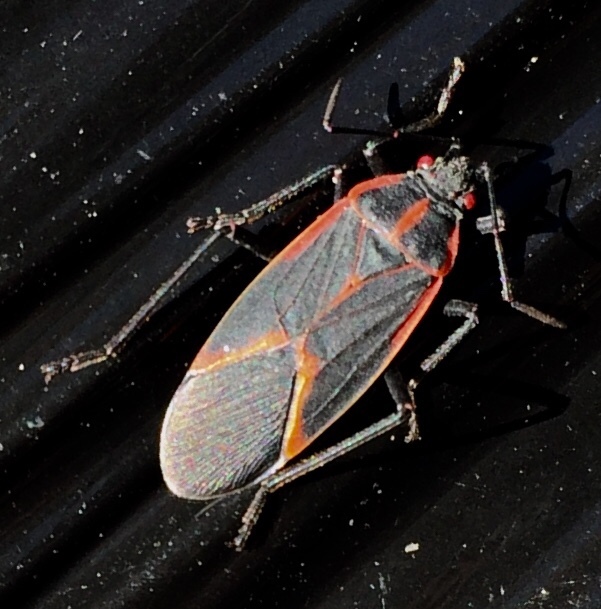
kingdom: Animalia
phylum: Arthropoda
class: Insecta
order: Hemiptera
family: Rhopalidae
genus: Boisea
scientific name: Boisea trivittata
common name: Boxelder bug
